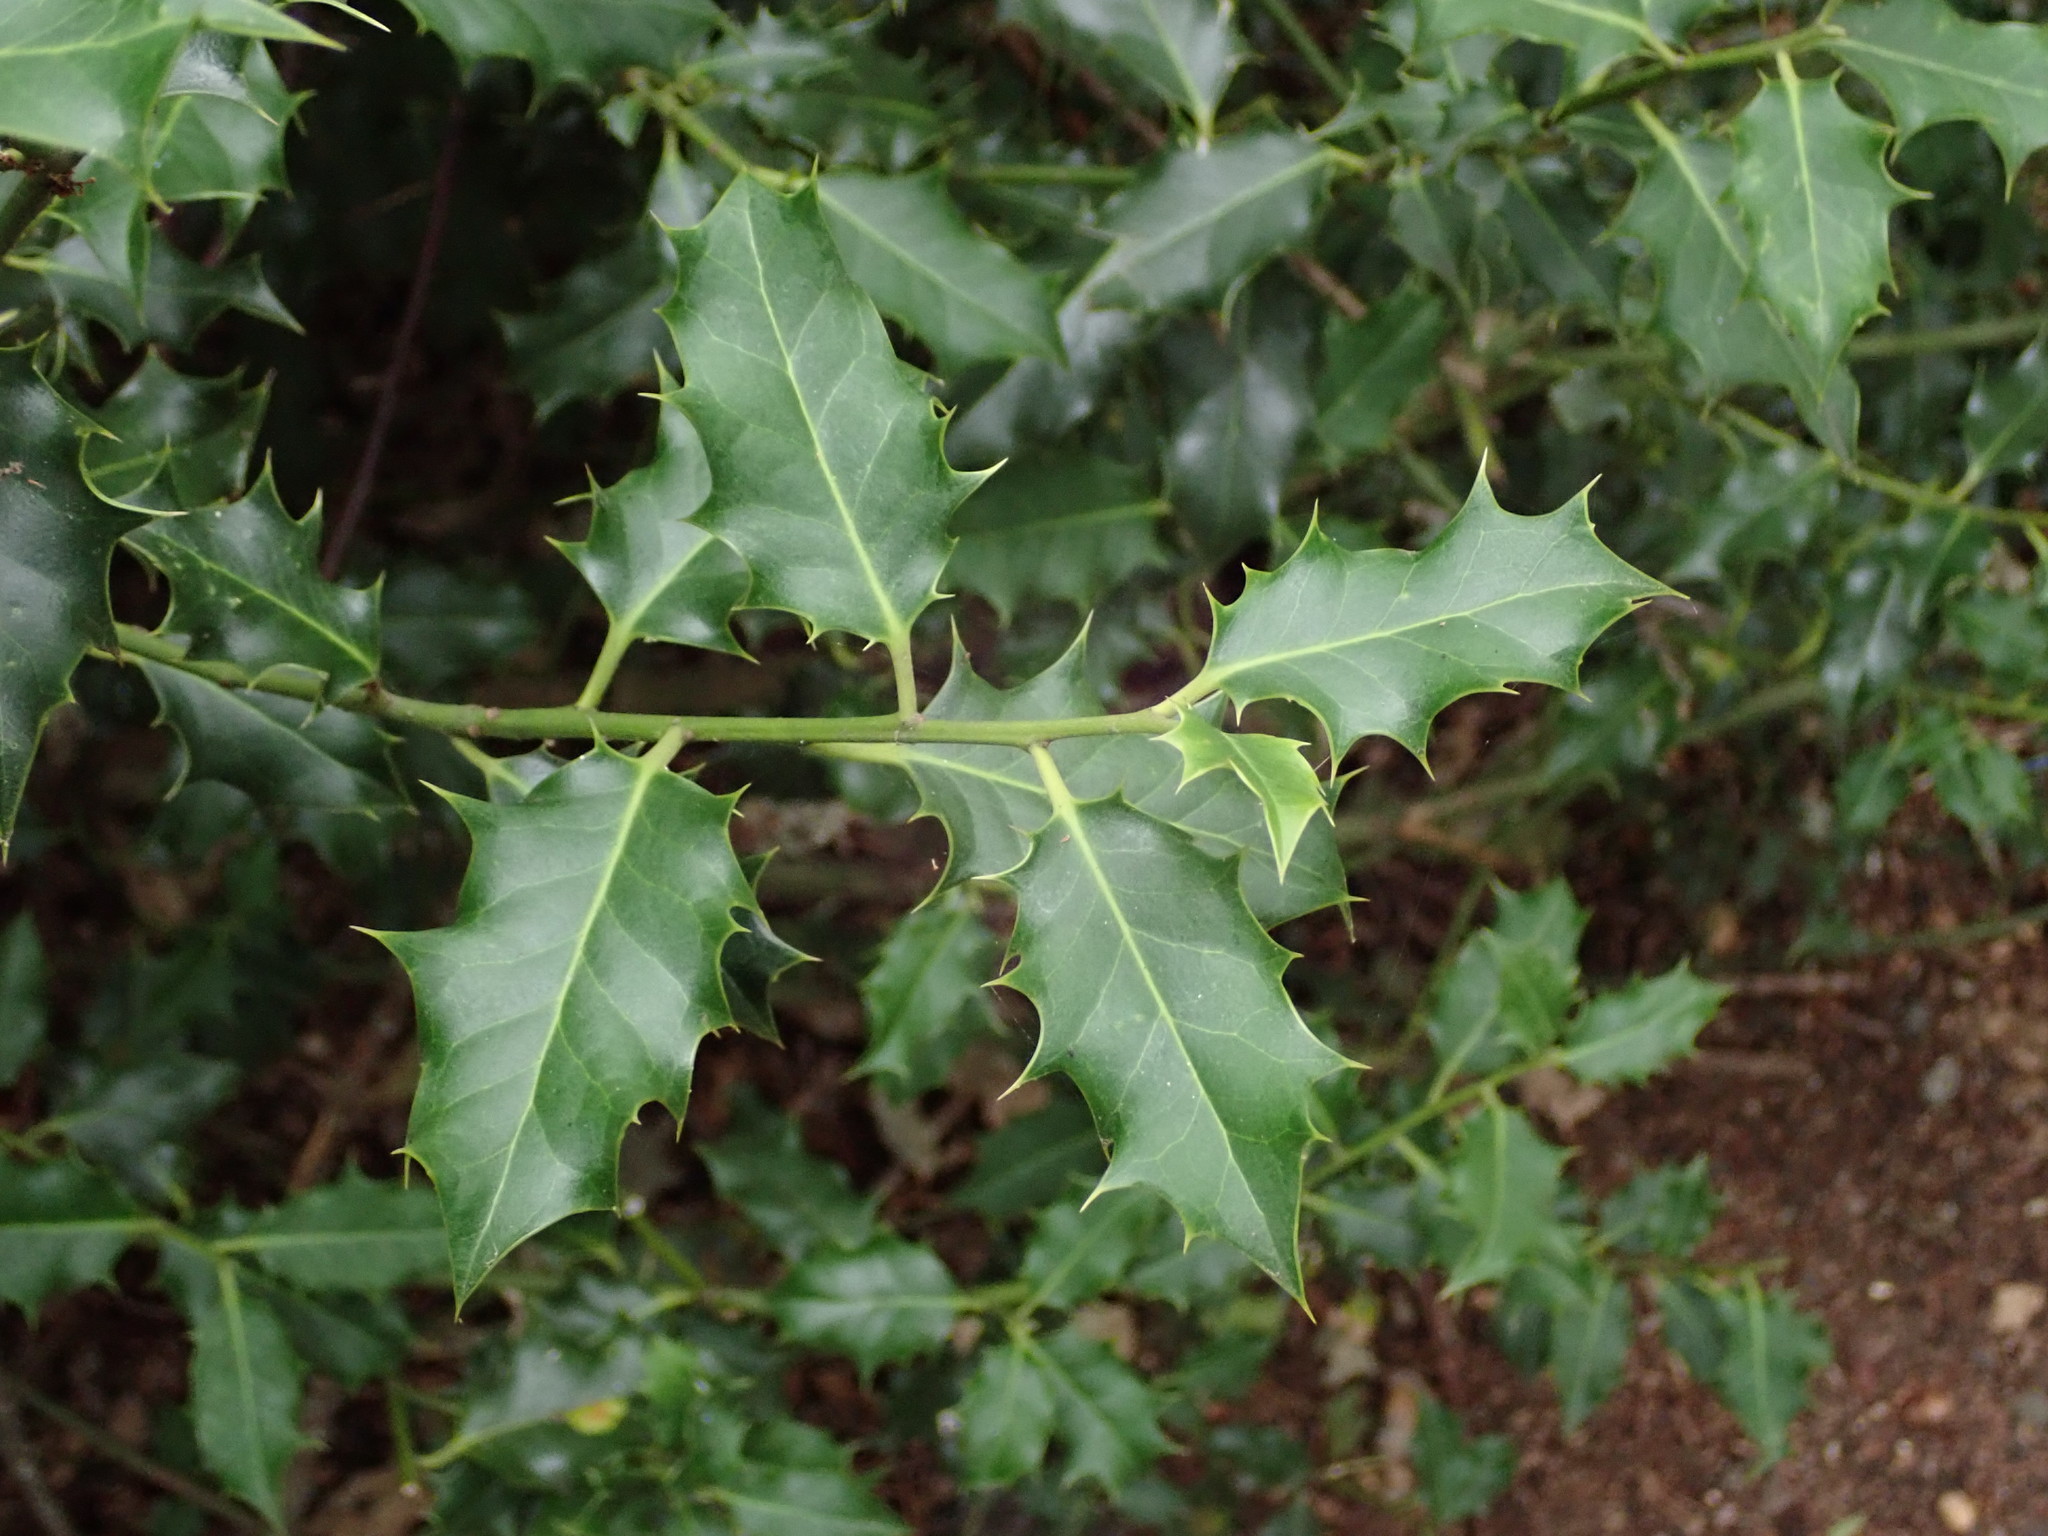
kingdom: Plantae
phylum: Tracheophyta
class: Magnoliopsida
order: Aquifoliales
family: Aquifoliaceae
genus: Ilex
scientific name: Ilex aquifolium
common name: English holly
